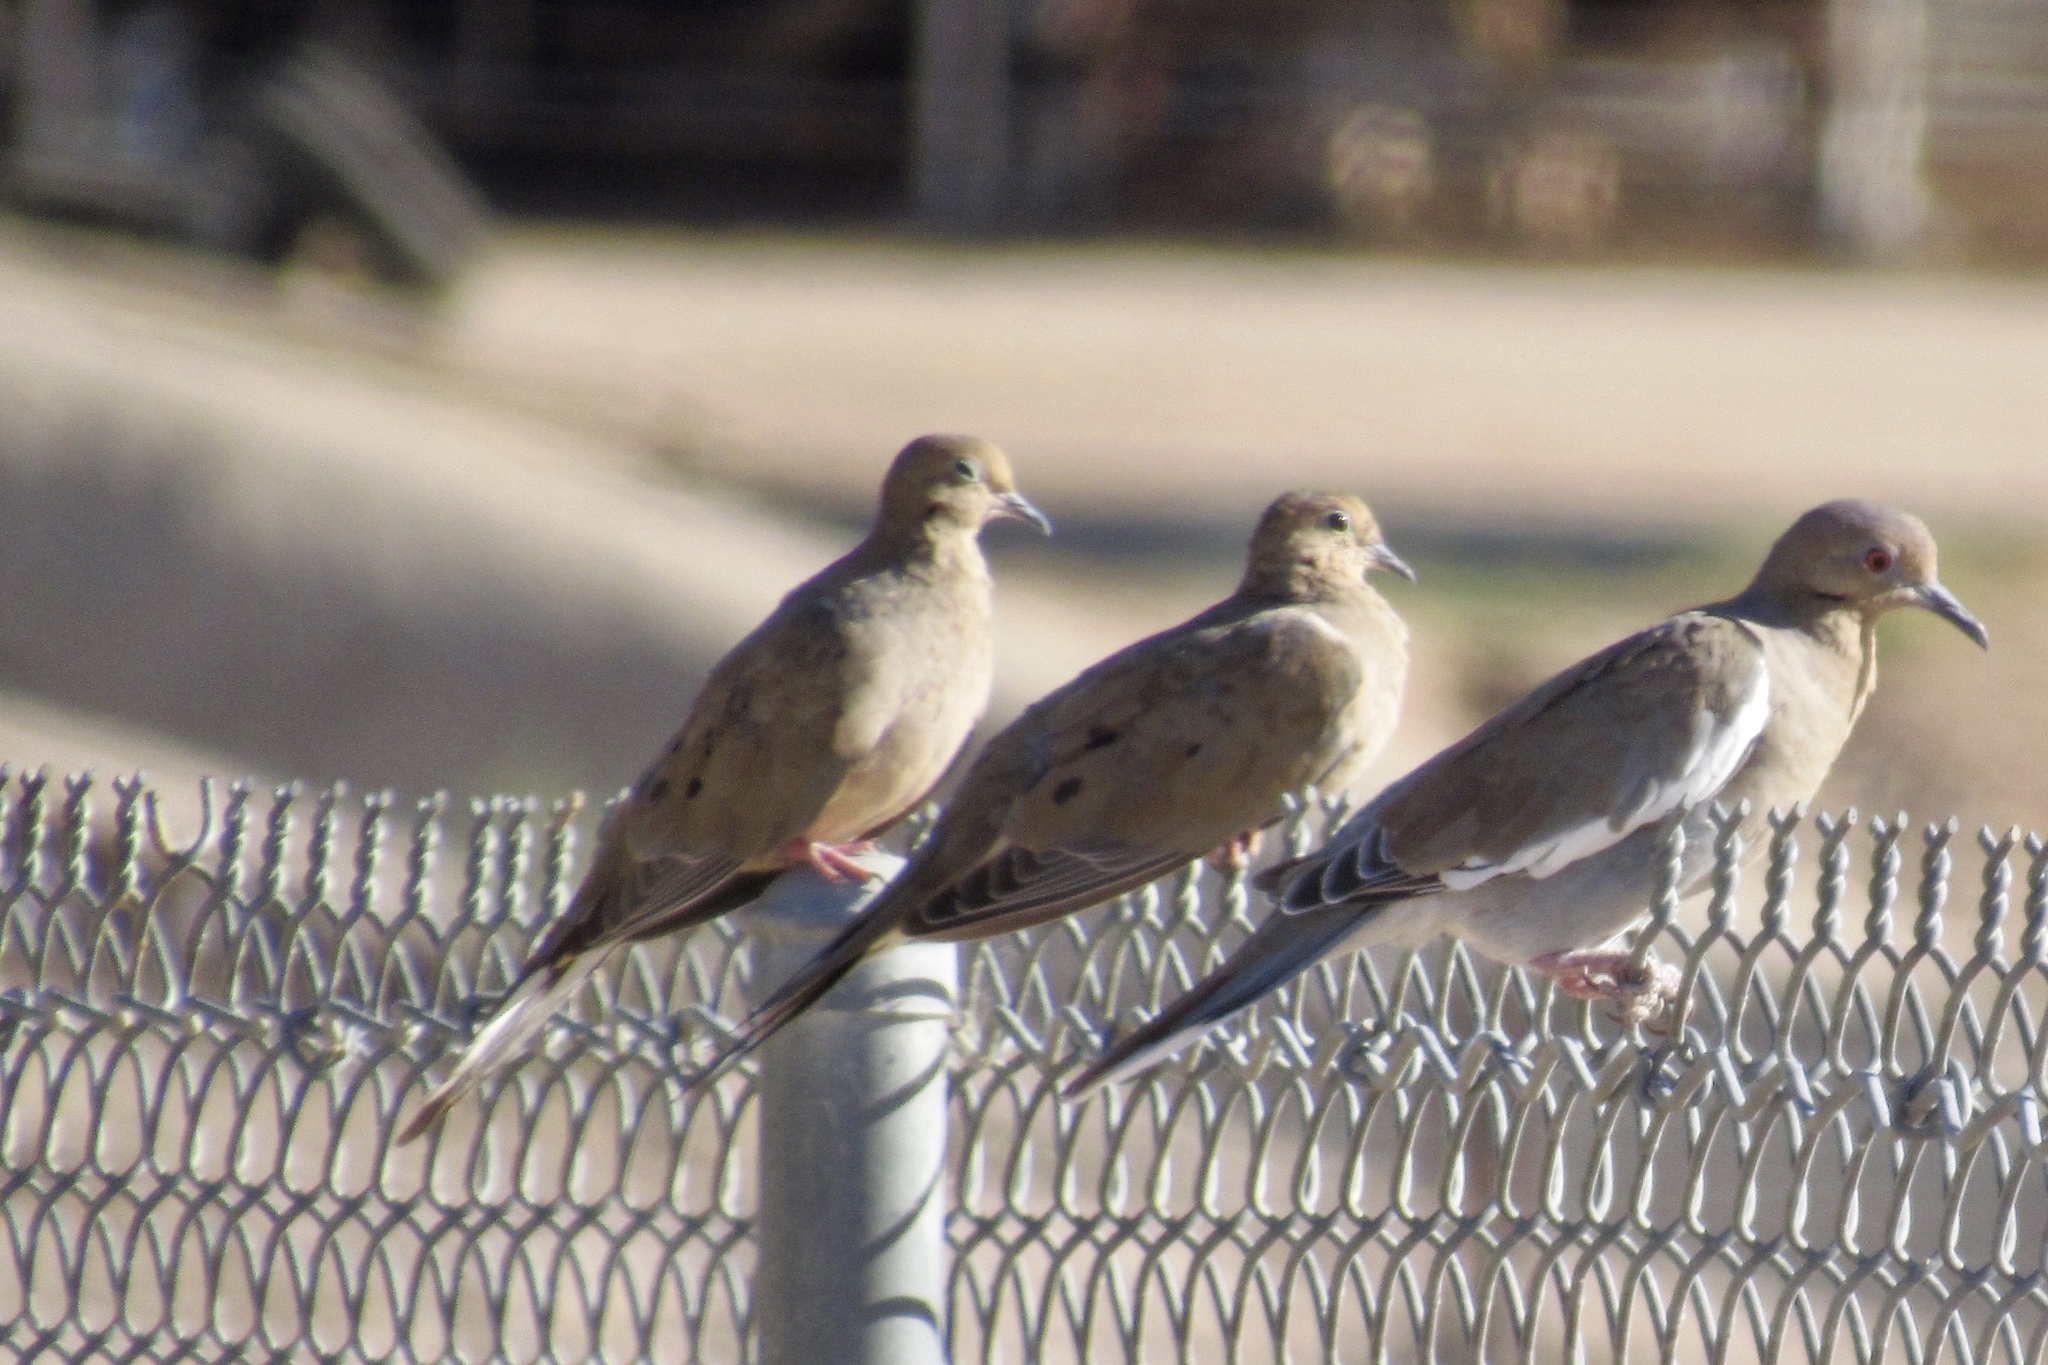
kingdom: Animalia
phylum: Chordata
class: Aves
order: Columbiformes
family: Columbidae
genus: Zenaida
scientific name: Zenaida macroura
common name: Mourning dove
